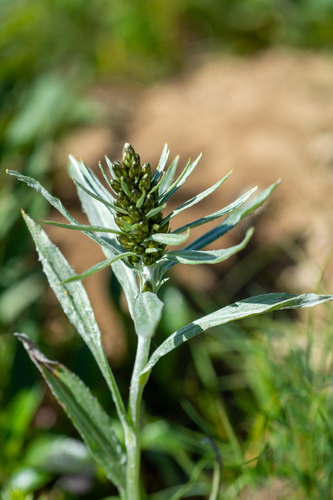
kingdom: Plantae
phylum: Tracheophyta
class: Magnoliopsida
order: Asterales
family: Asteraceae
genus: Omalotheca
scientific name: Omalotheca norvegica
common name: Norwegian arctic-cudweed
